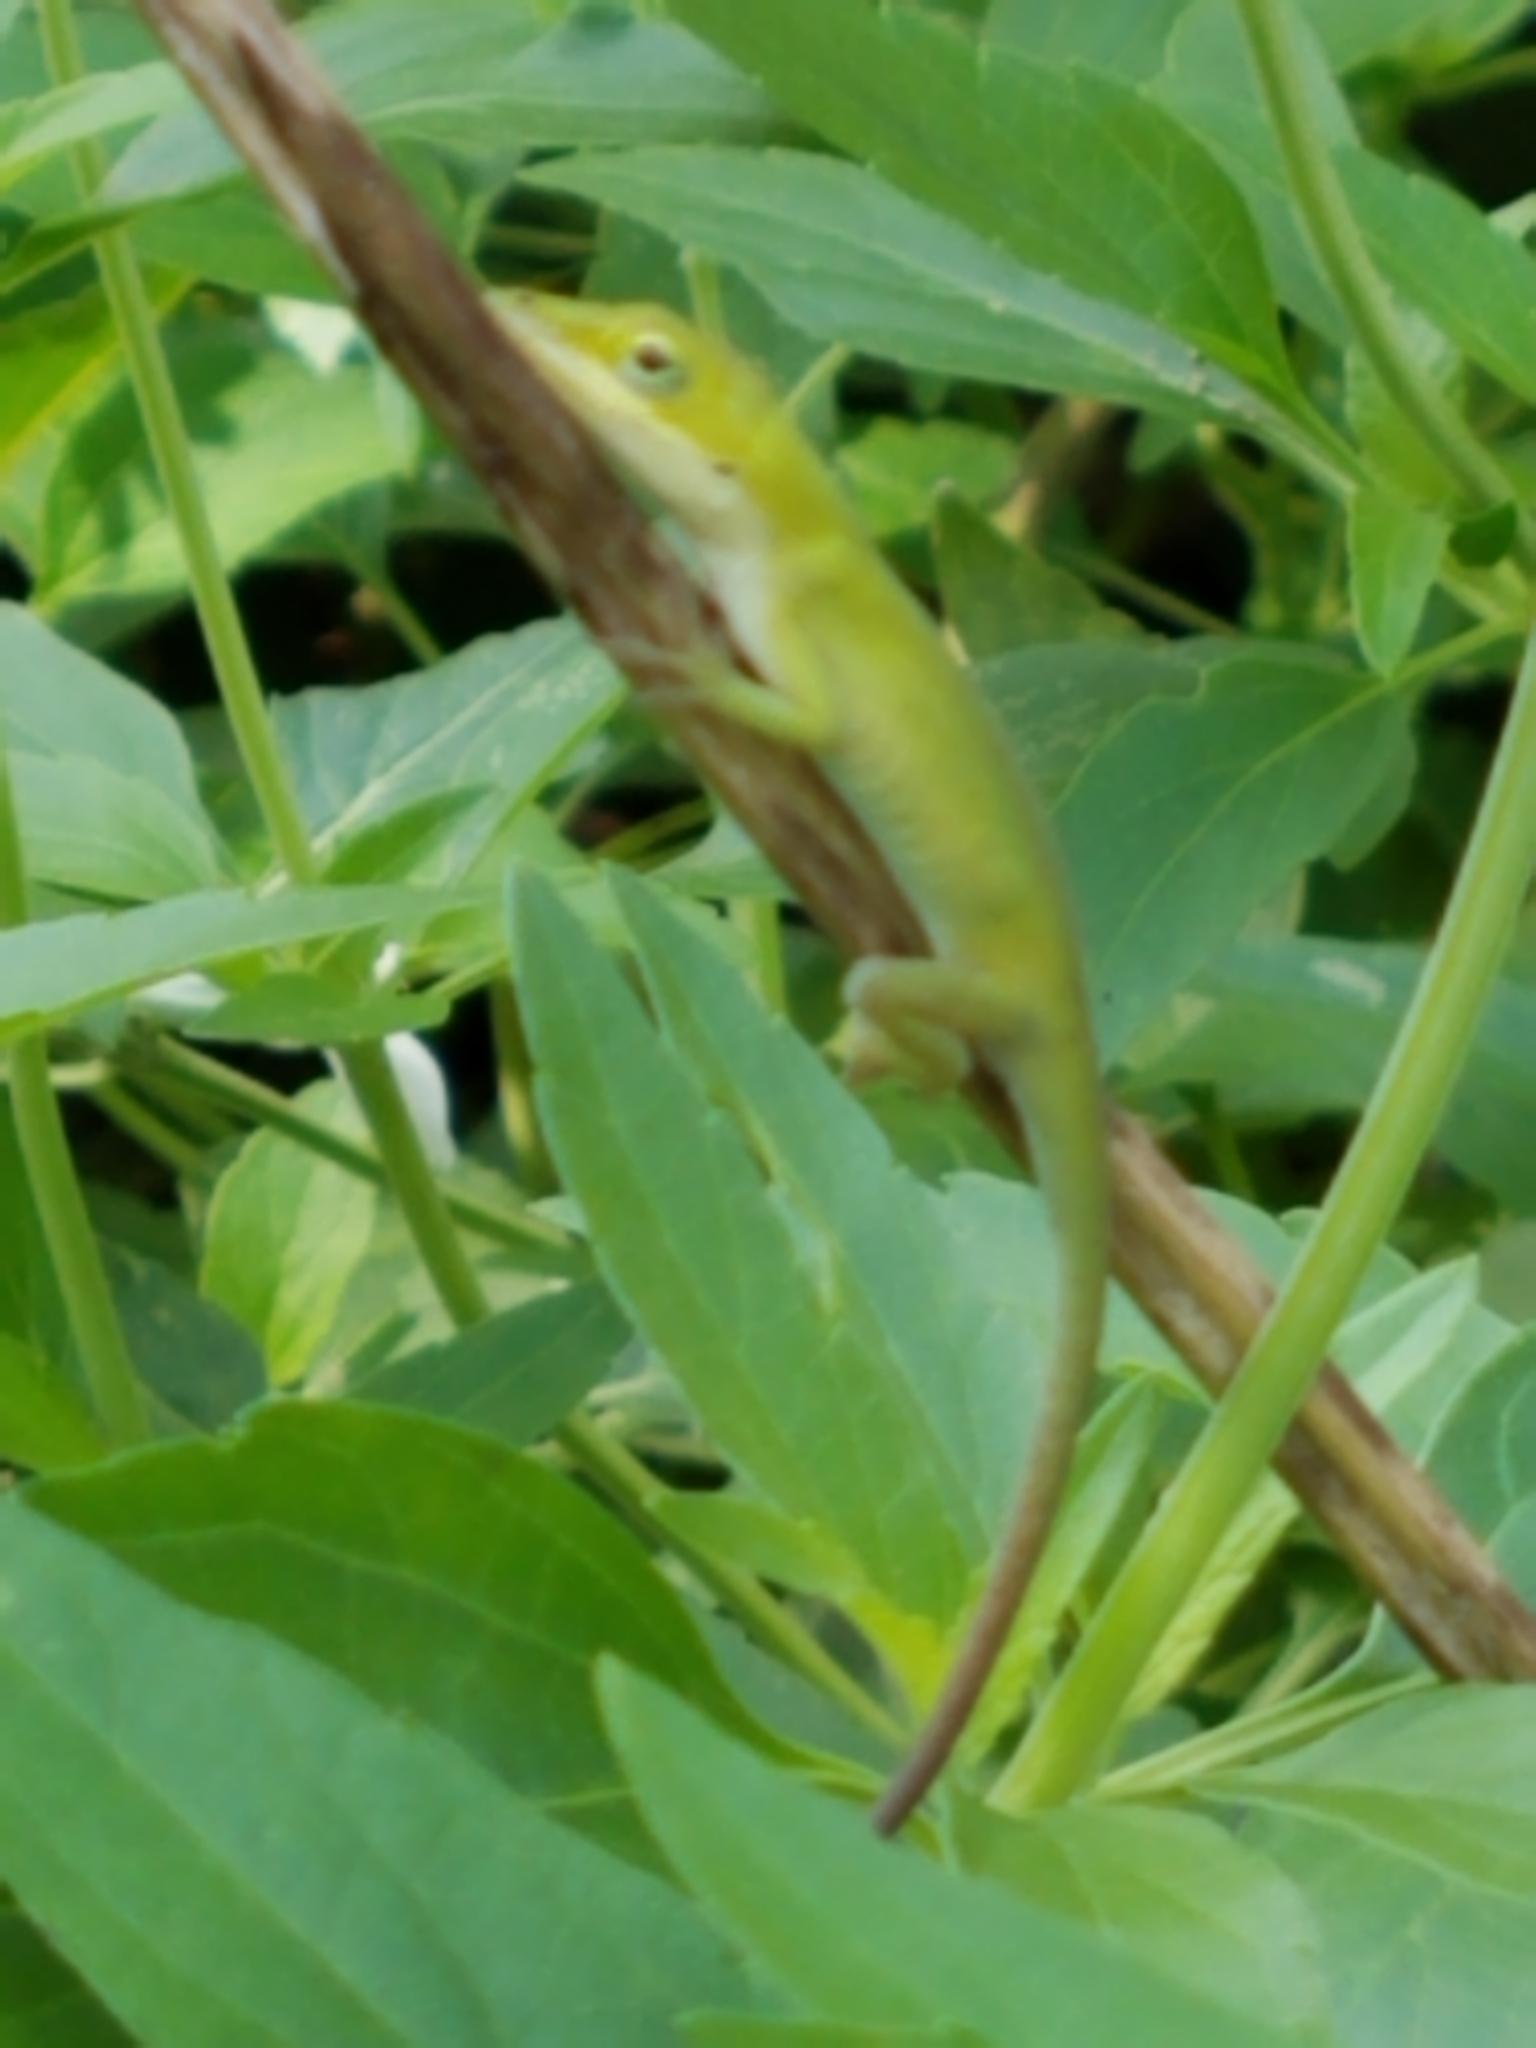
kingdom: Animalia
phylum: Chordata
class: Squamata
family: Dactyloidae
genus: Anolis
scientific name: Anolis carolinensis
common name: Green anole
